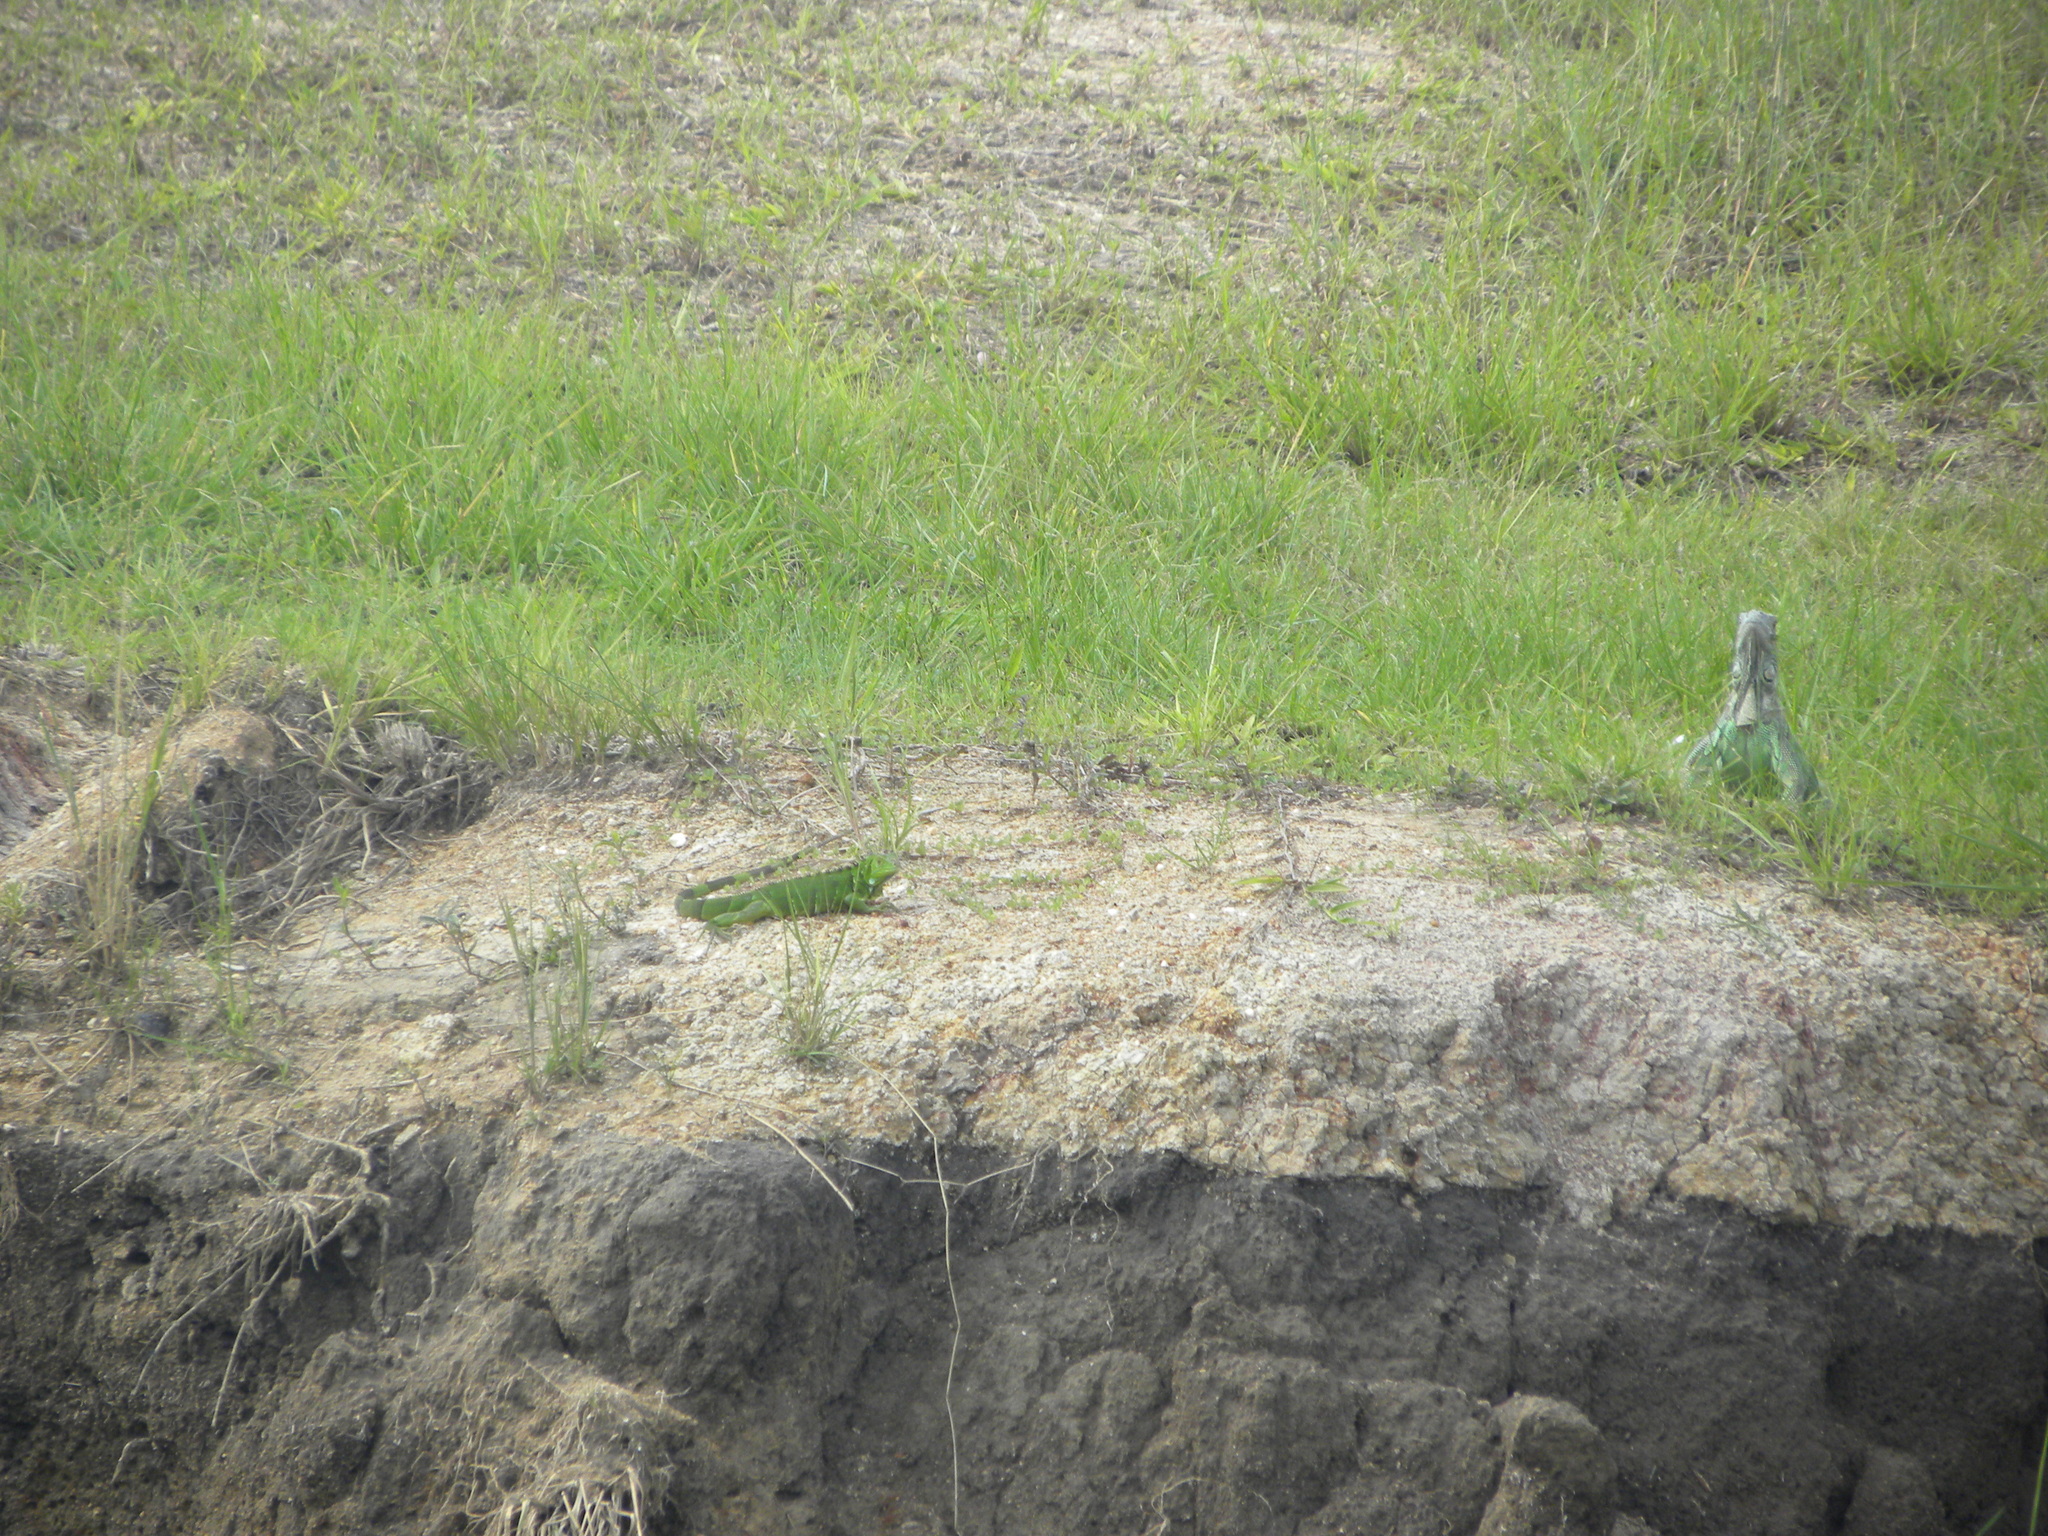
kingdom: Animalia
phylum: Chordata
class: Squamata
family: Iguanidae
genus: Iguana
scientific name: Iguana iguana
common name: Green iguana
